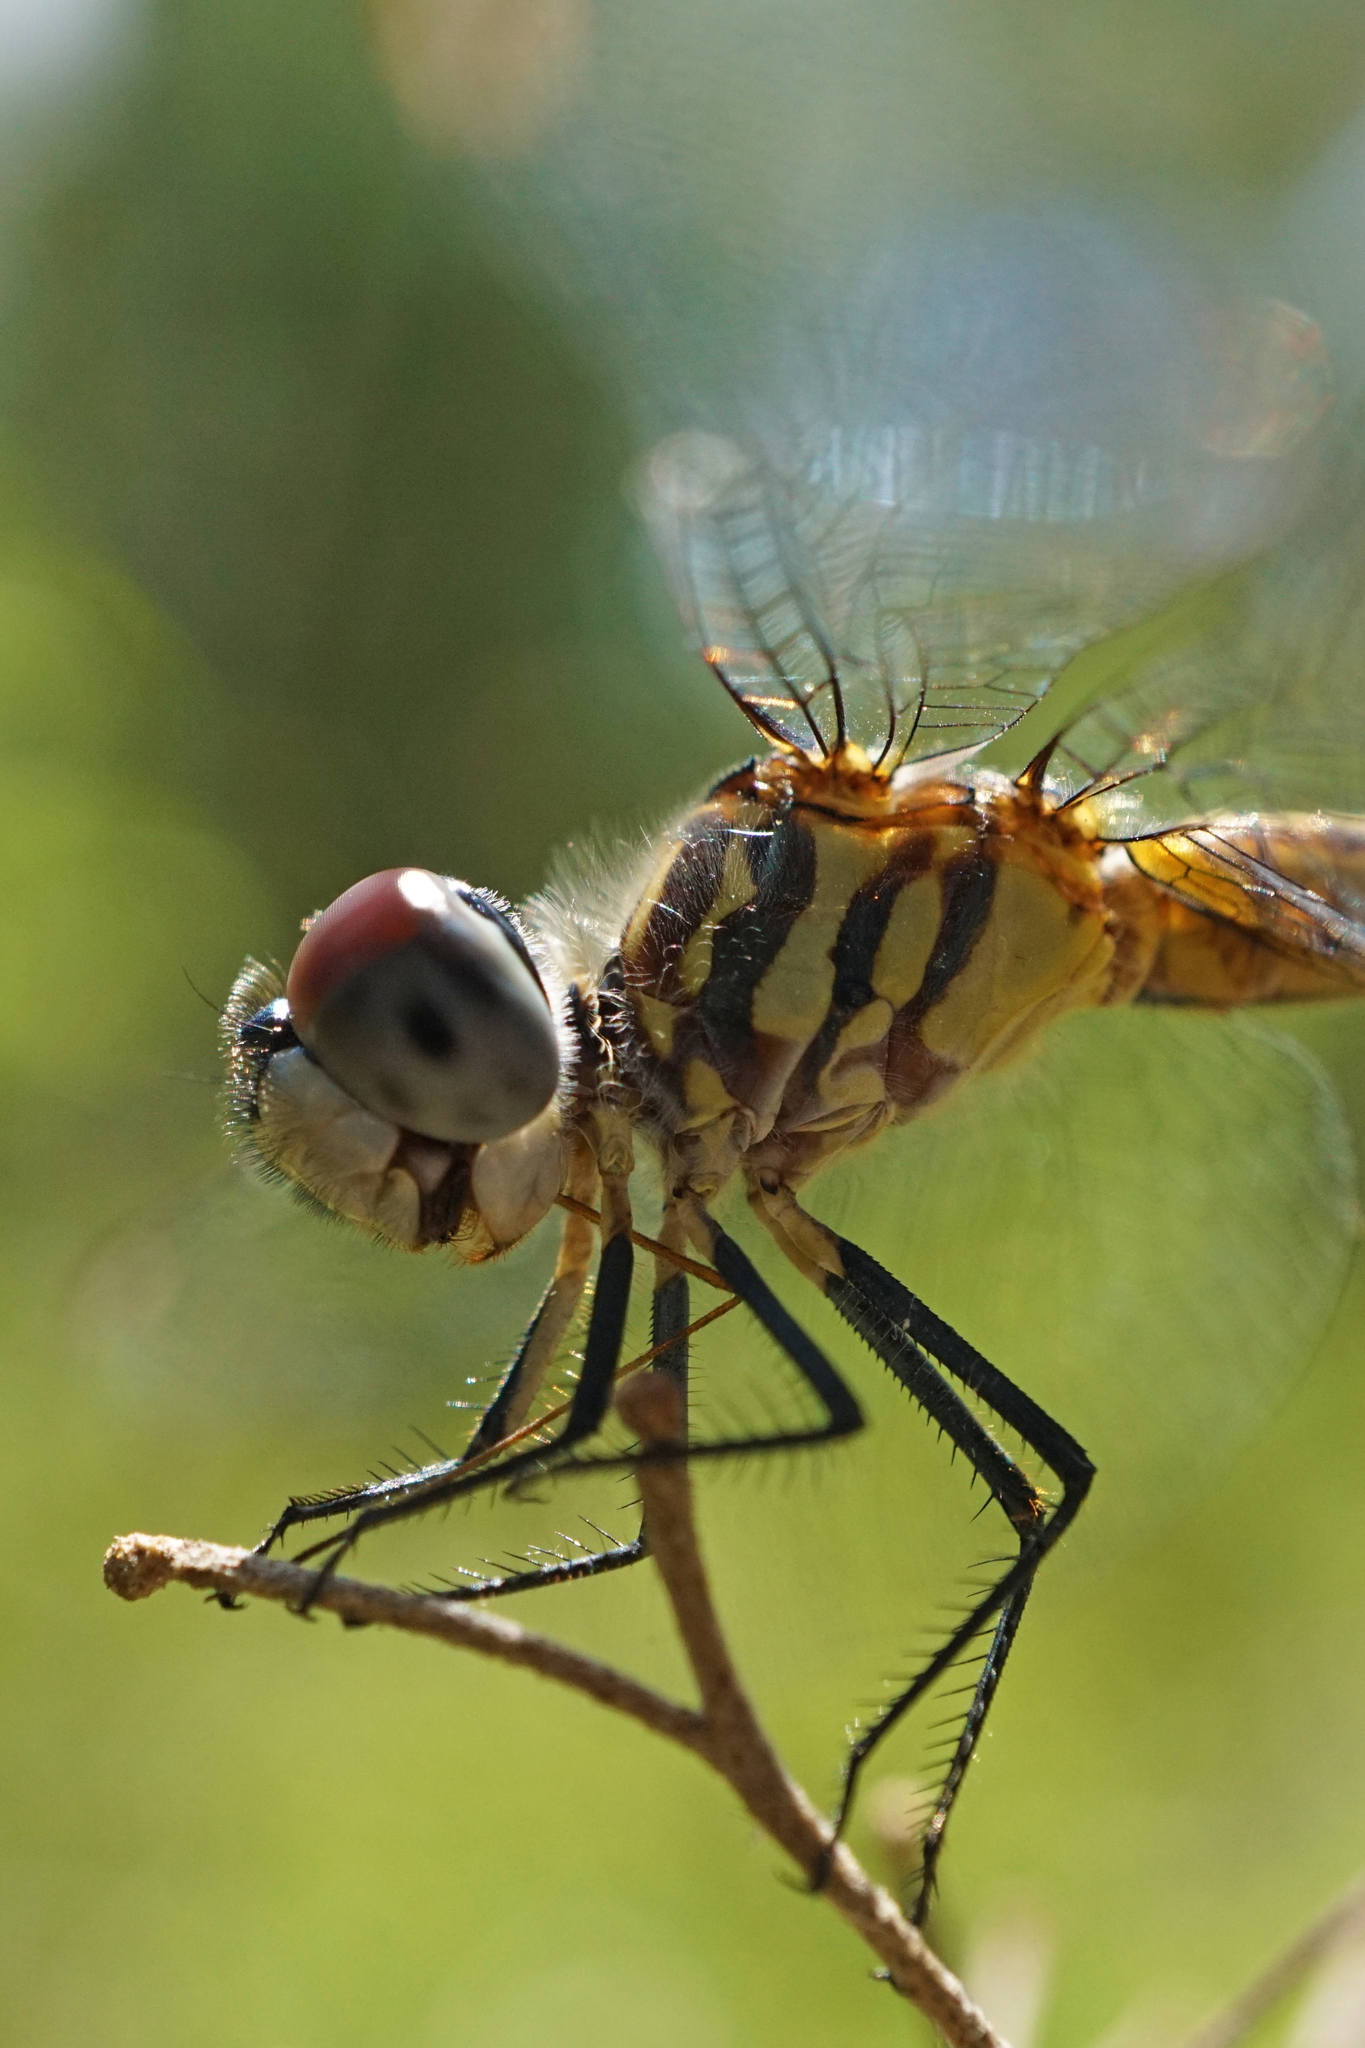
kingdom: Animalia
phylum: Arthropoda
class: Insecta
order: Odonata
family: Libellulidae
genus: Pachydiplax
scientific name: Pachydiplax longipennis
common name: Blue dasher
